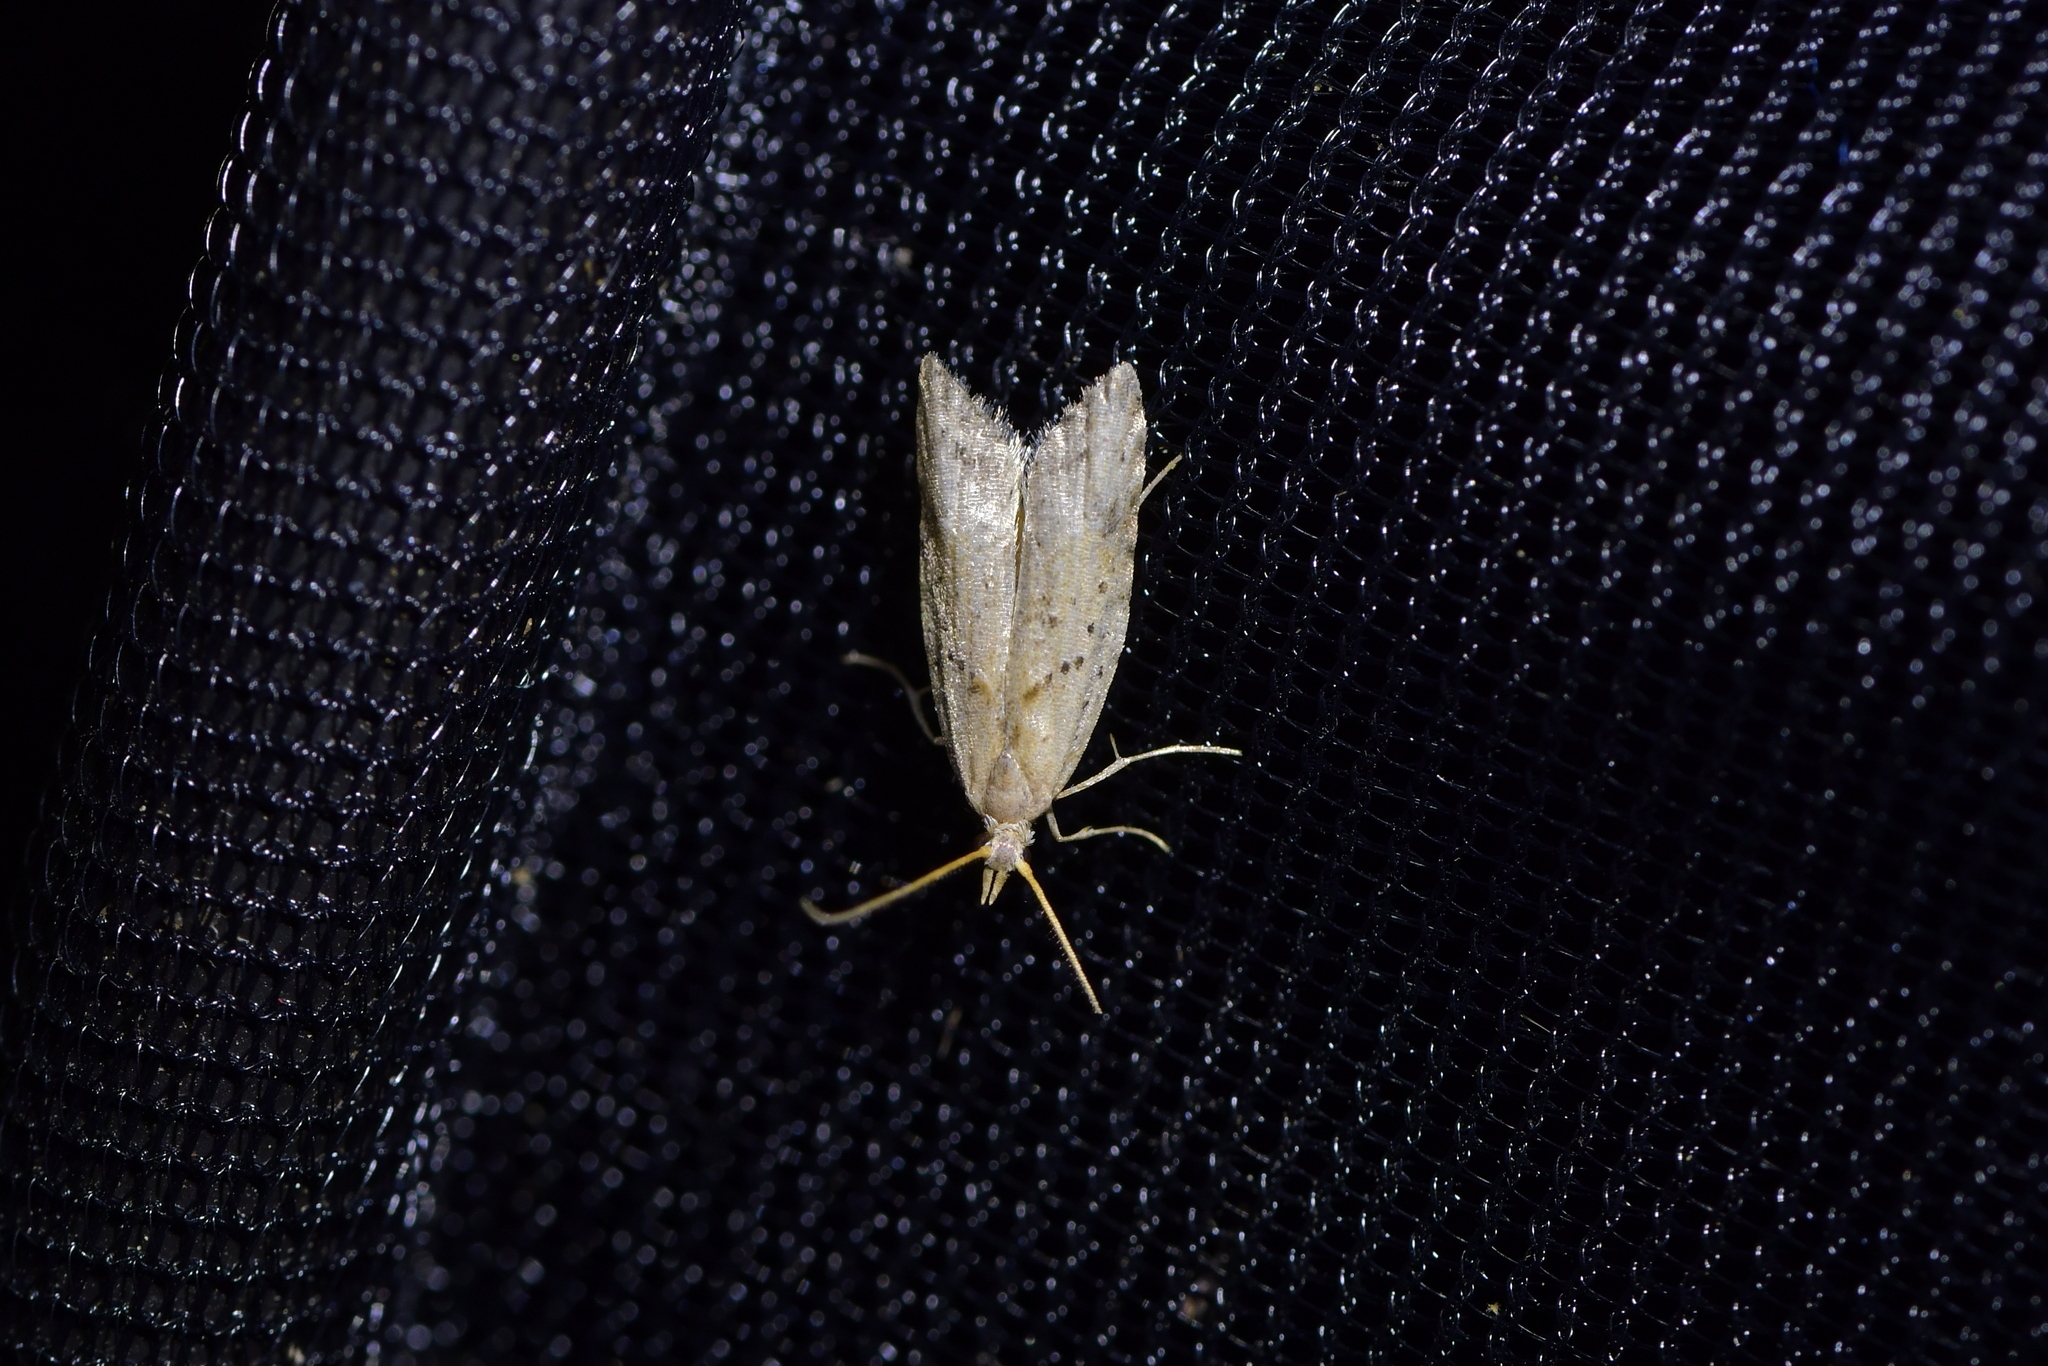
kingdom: Animalia
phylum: Arthropoda
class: Insecta
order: Lepidoptera
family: Carposinidae
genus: Carposina
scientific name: Carposina rubophaga
